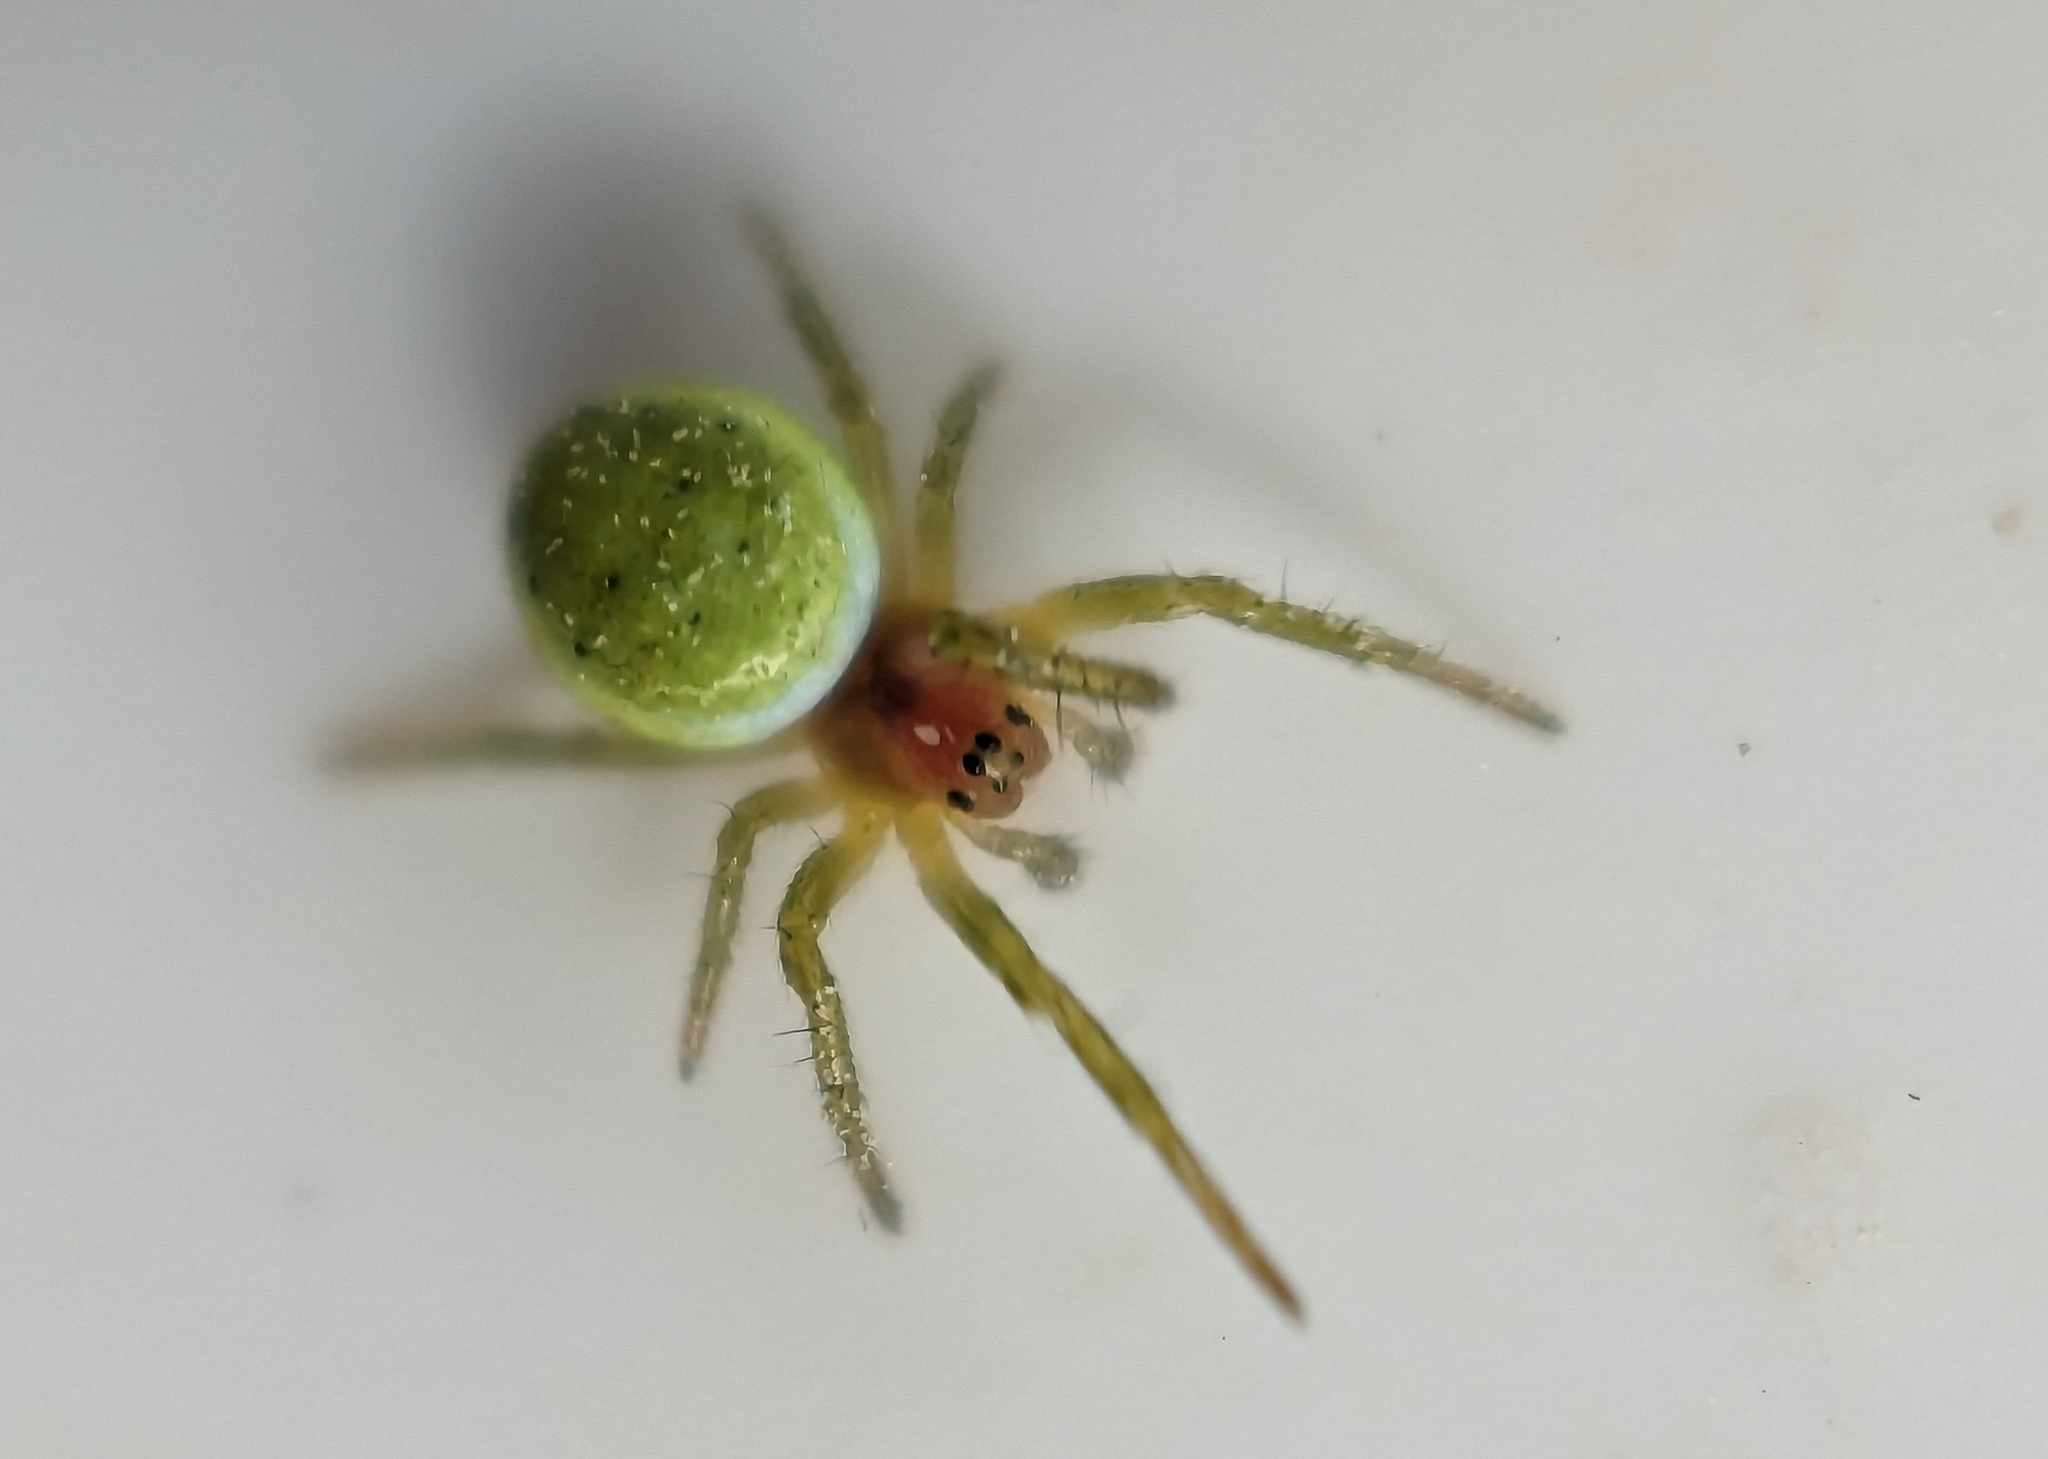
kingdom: Animalia
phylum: Arthropoda
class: Arachnida
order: Araneae
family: Araneidae
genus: Araniella
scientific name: Araniella cucurbitina
